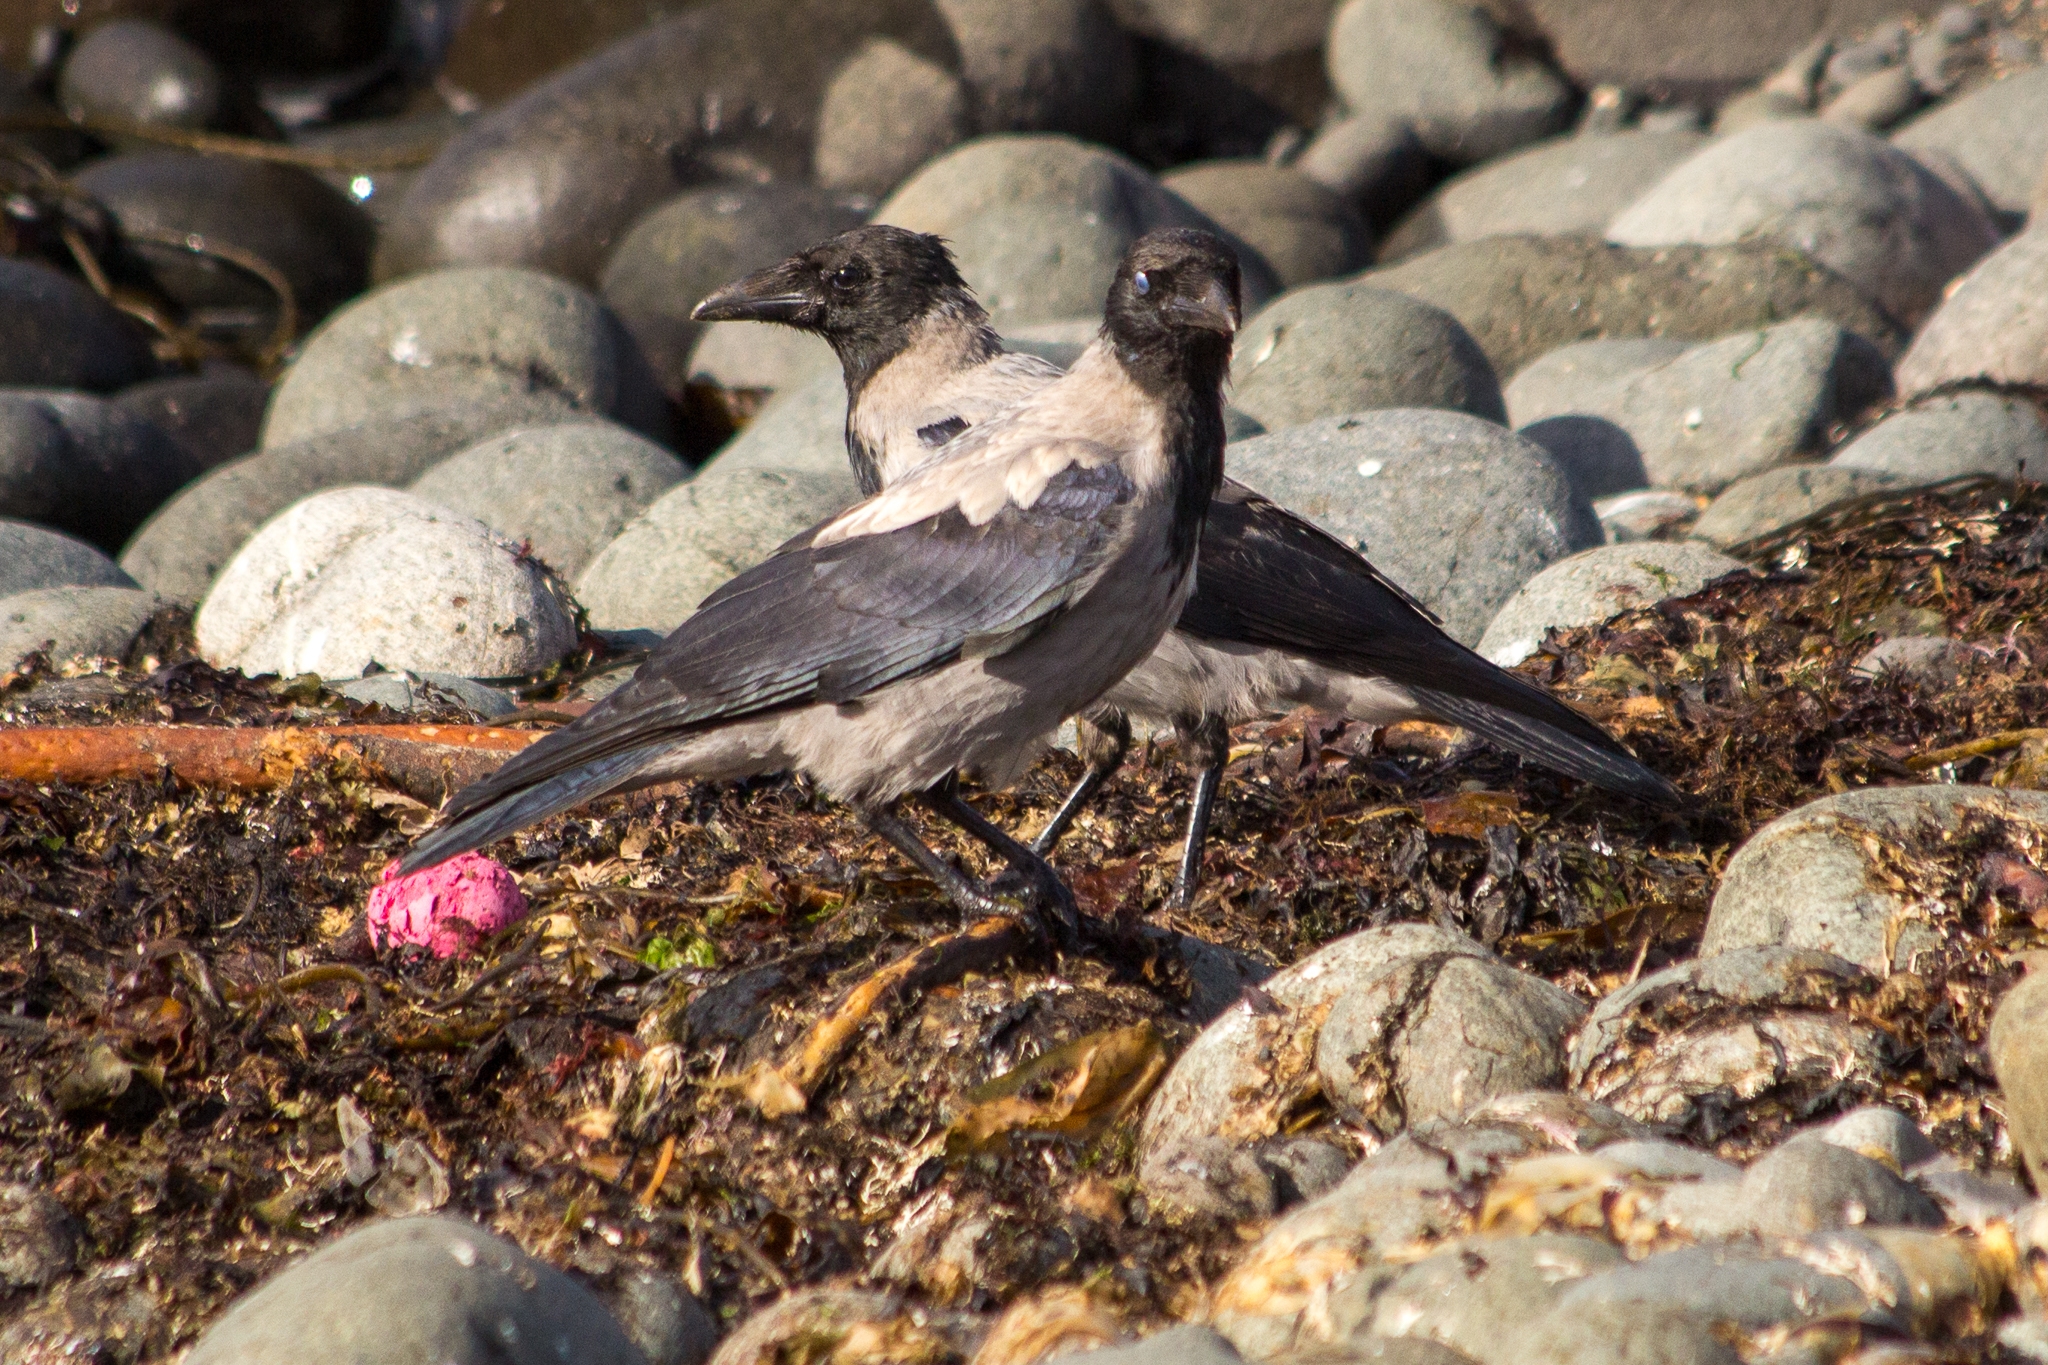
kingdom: Animalia
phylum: Chordata
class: Aves
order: Passeriformes
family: Corvidae
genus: Corvus
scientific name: Corvus cornix
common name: Hooded crow
